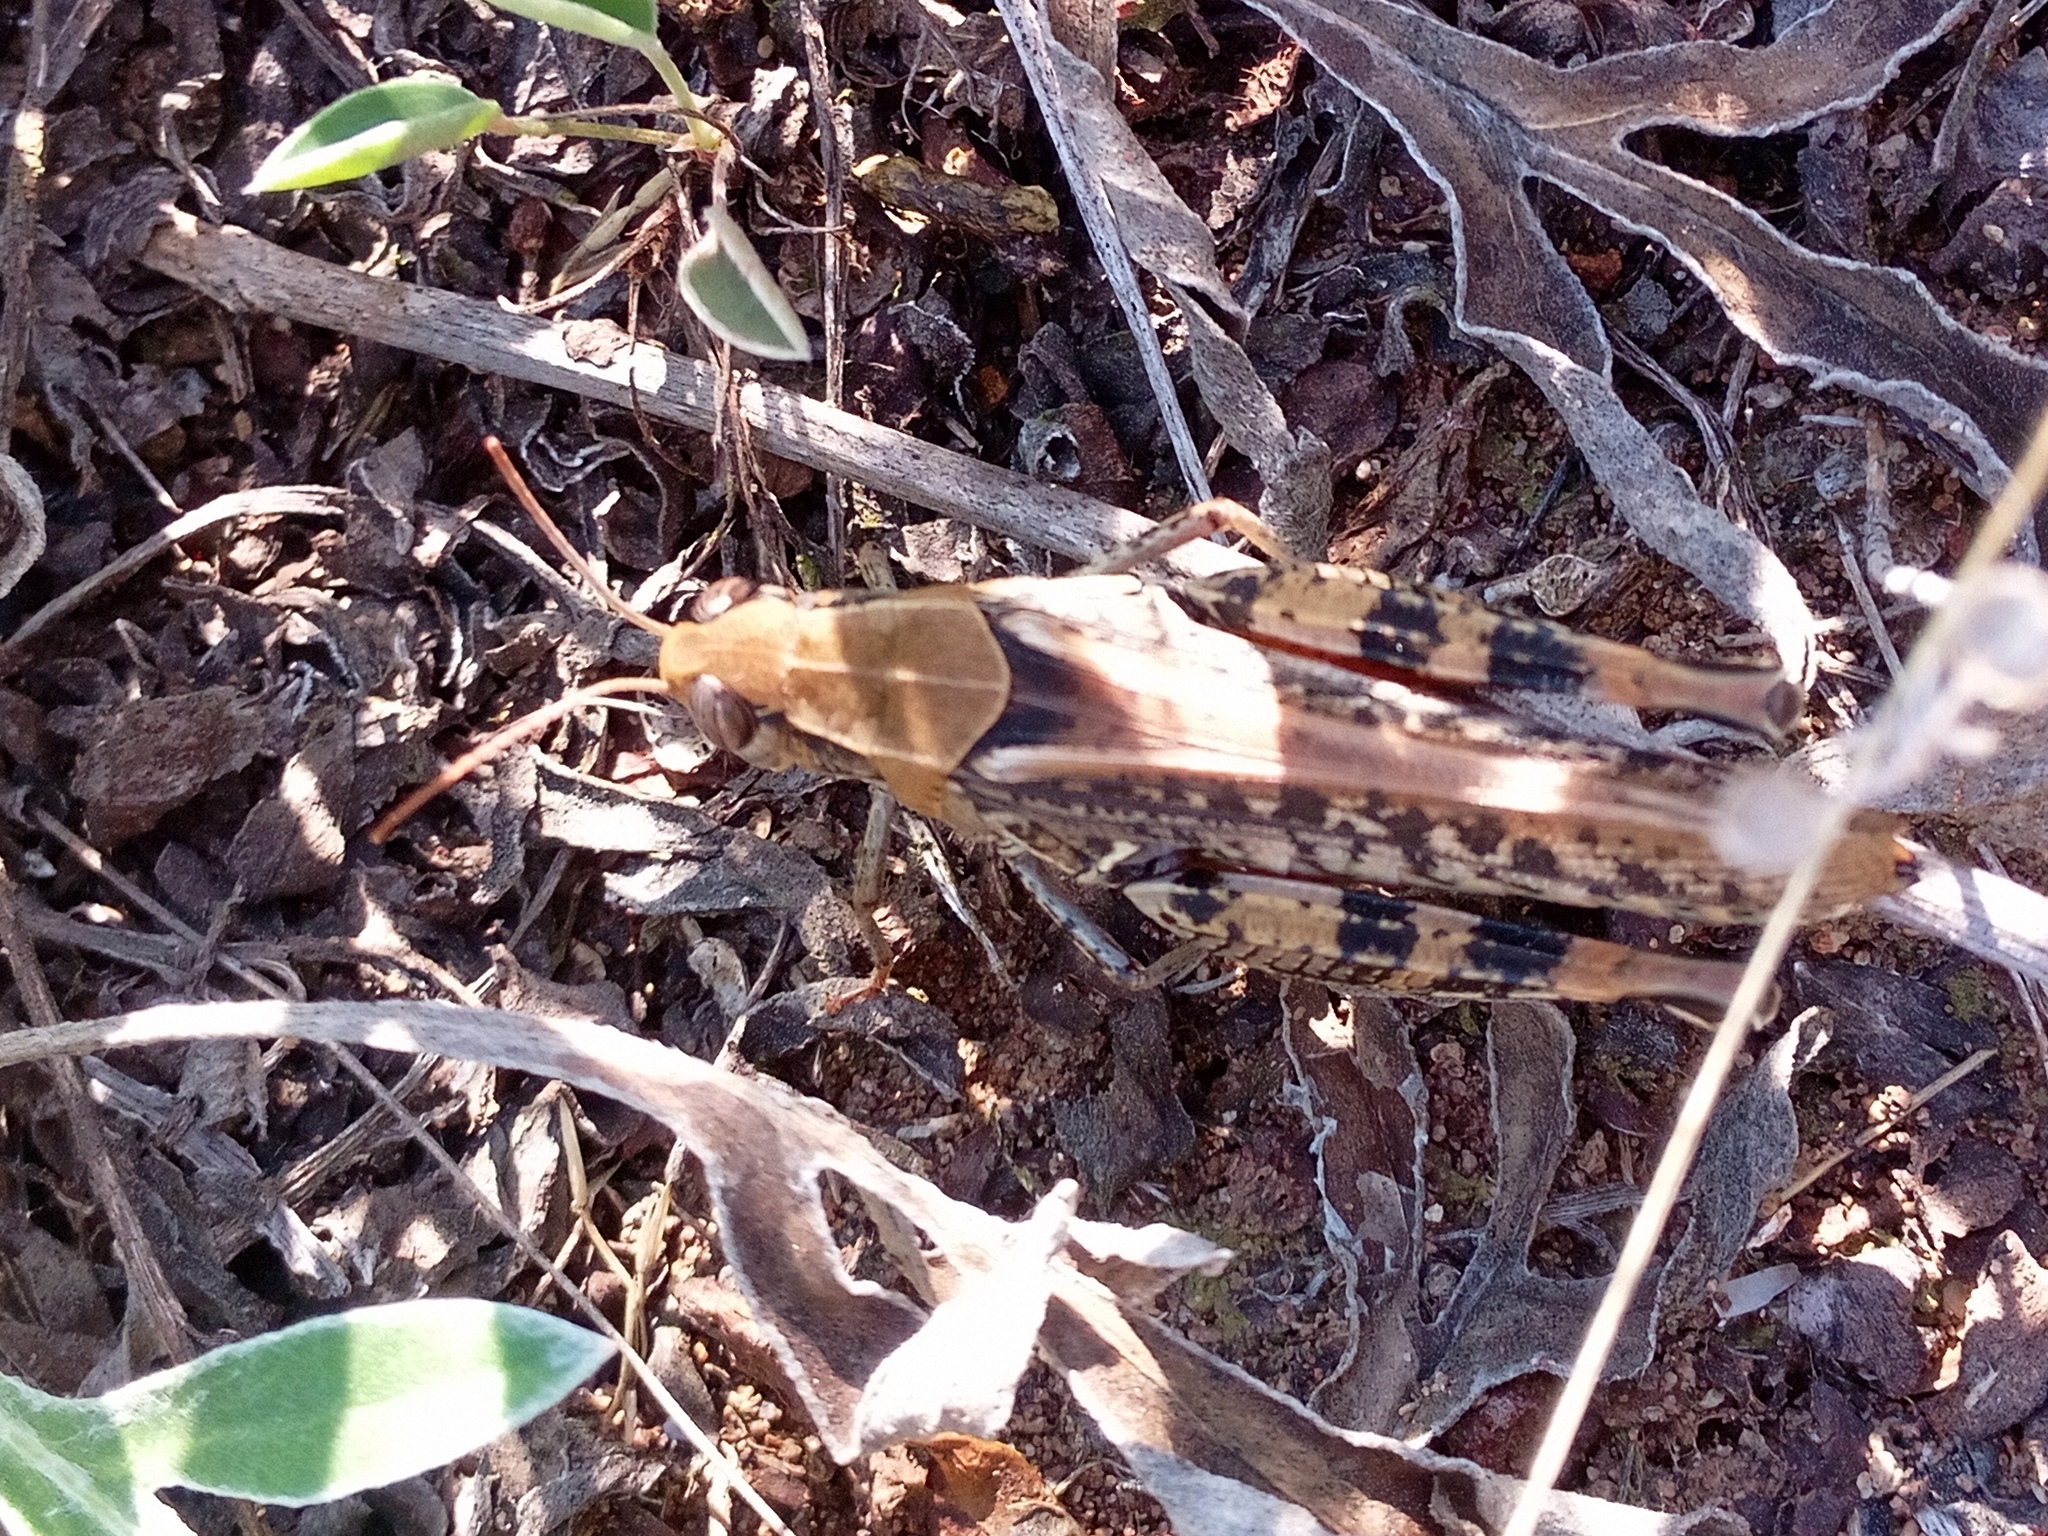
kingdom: Animalia
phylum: Arthropoda
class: Insecta
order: Orthoptera
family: Acrididae
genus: Calliptamus
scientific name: Calliptamus italicus
